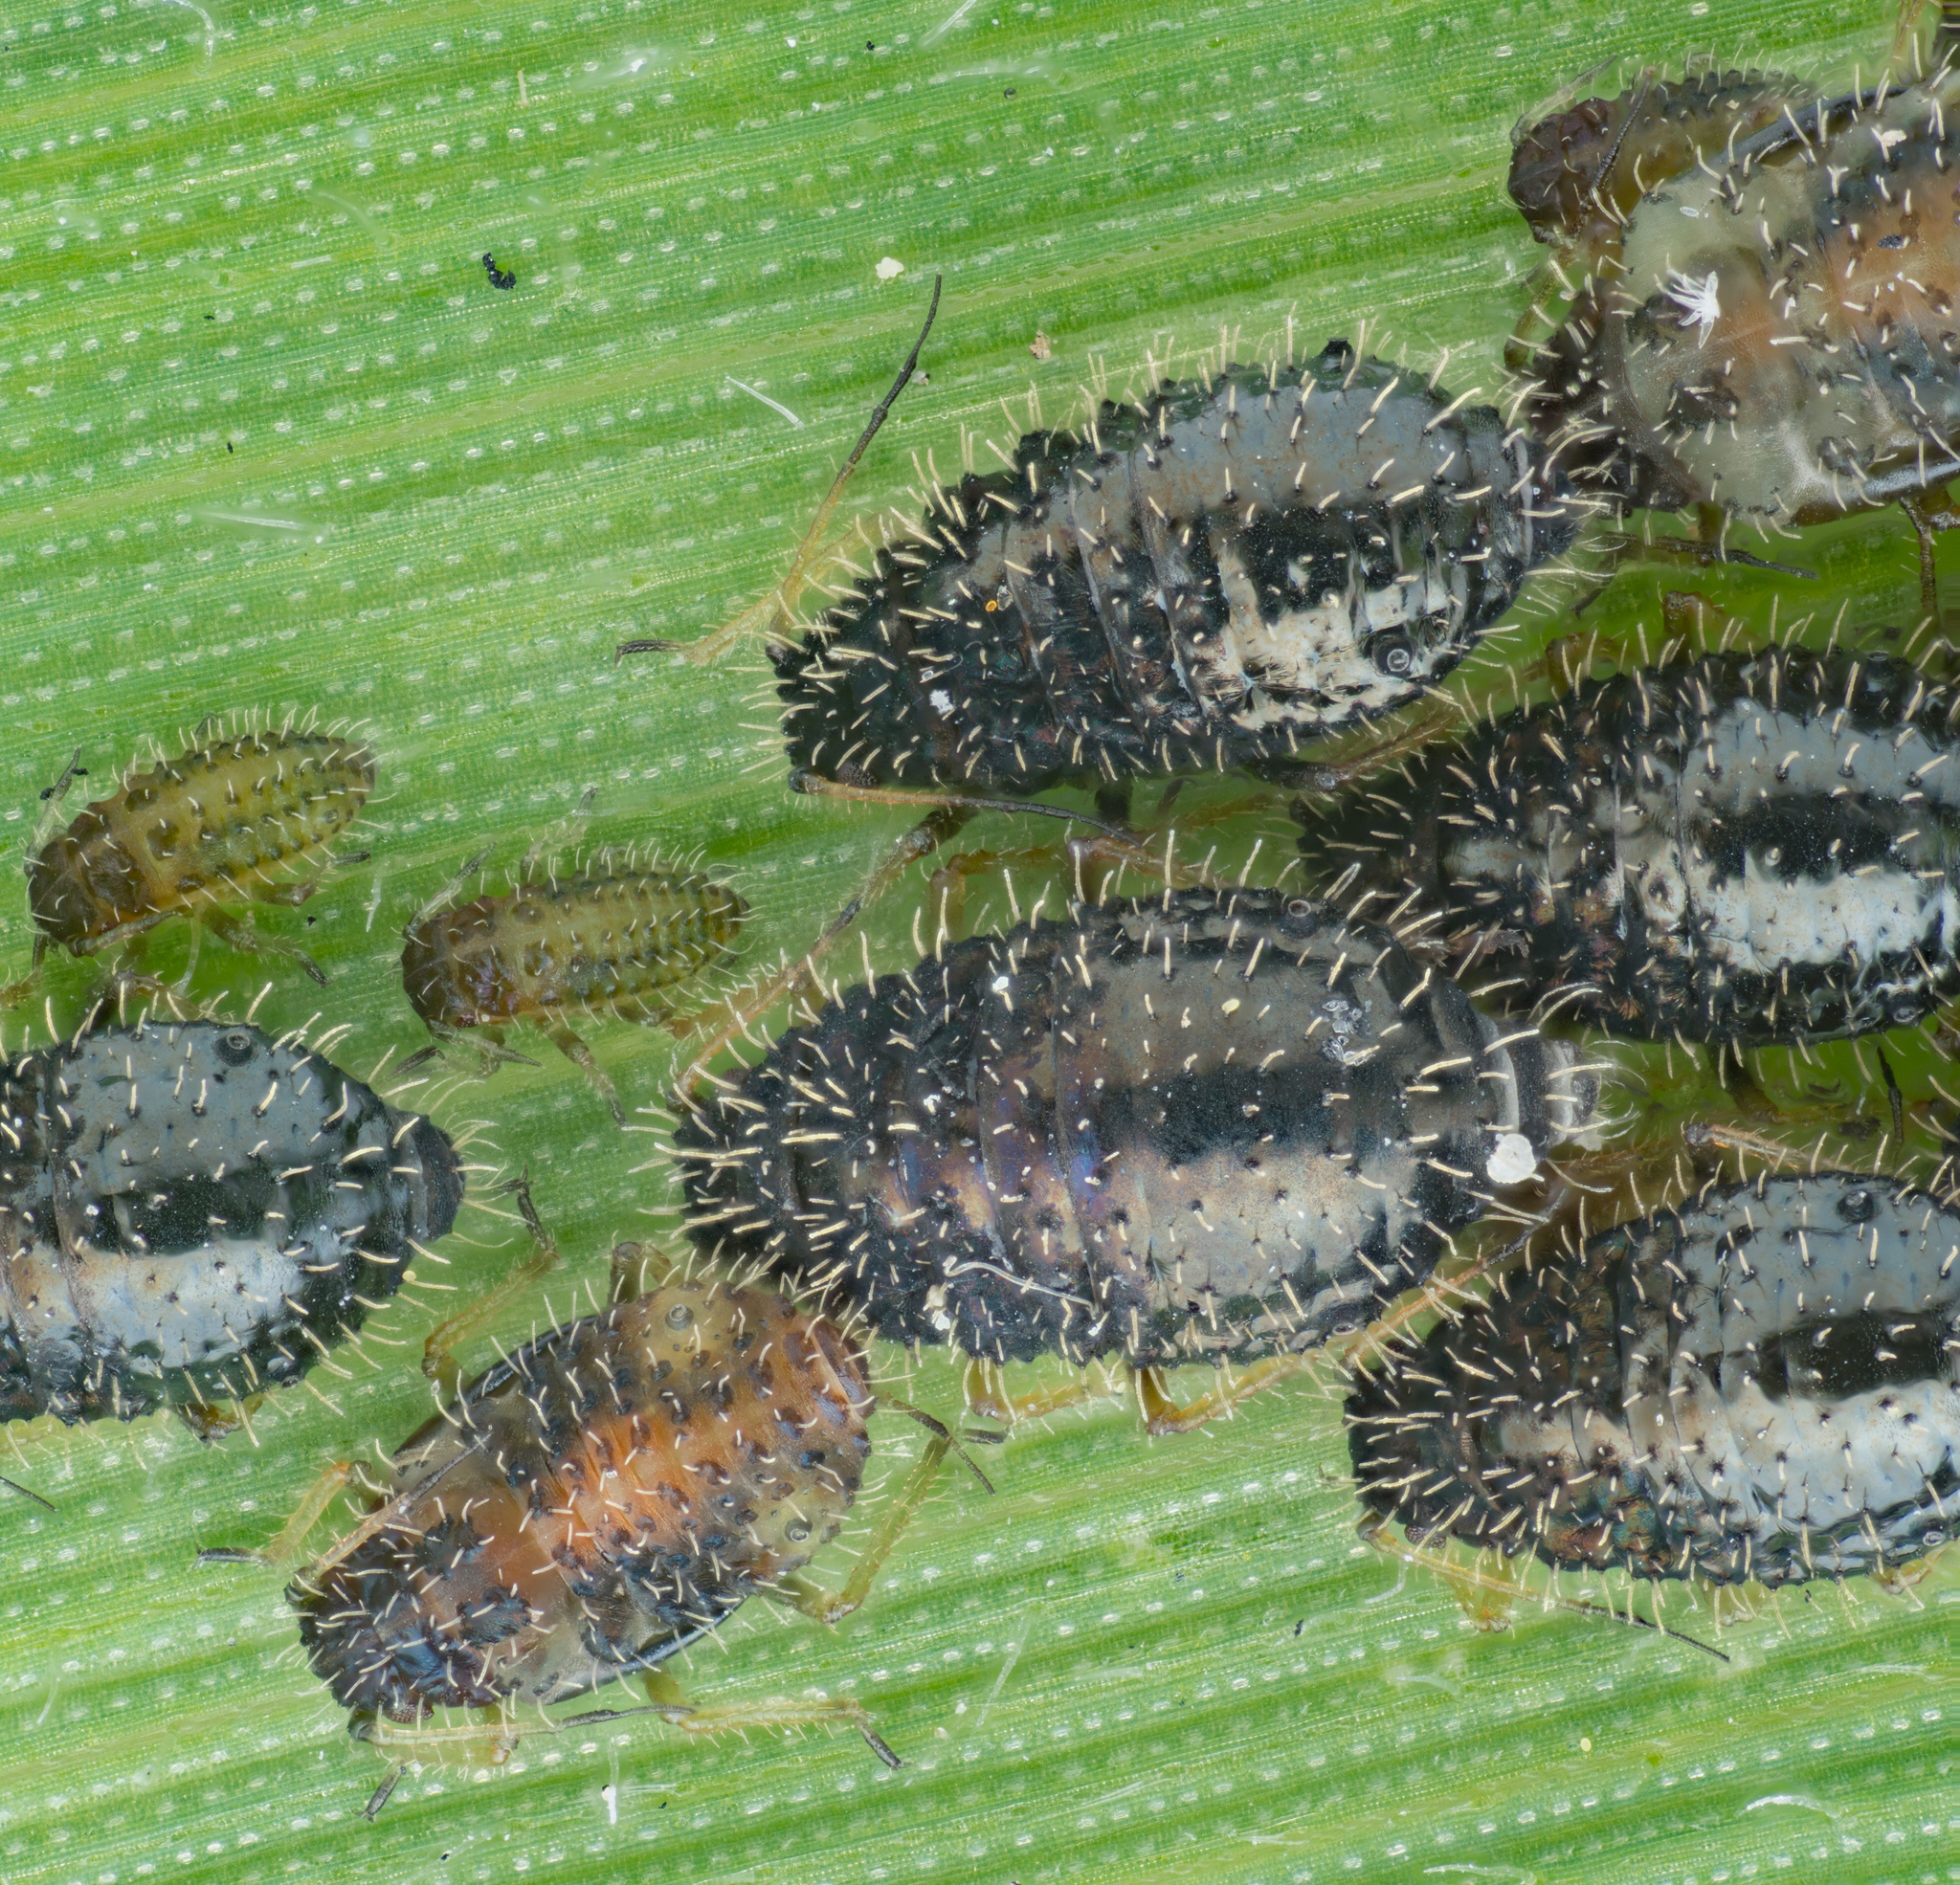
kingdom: Animalia
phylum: Arthropoda
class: Insecta
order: Hemiptera
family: Aphididae
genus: Sipha
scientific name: Sipha maydis
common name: Aphid
